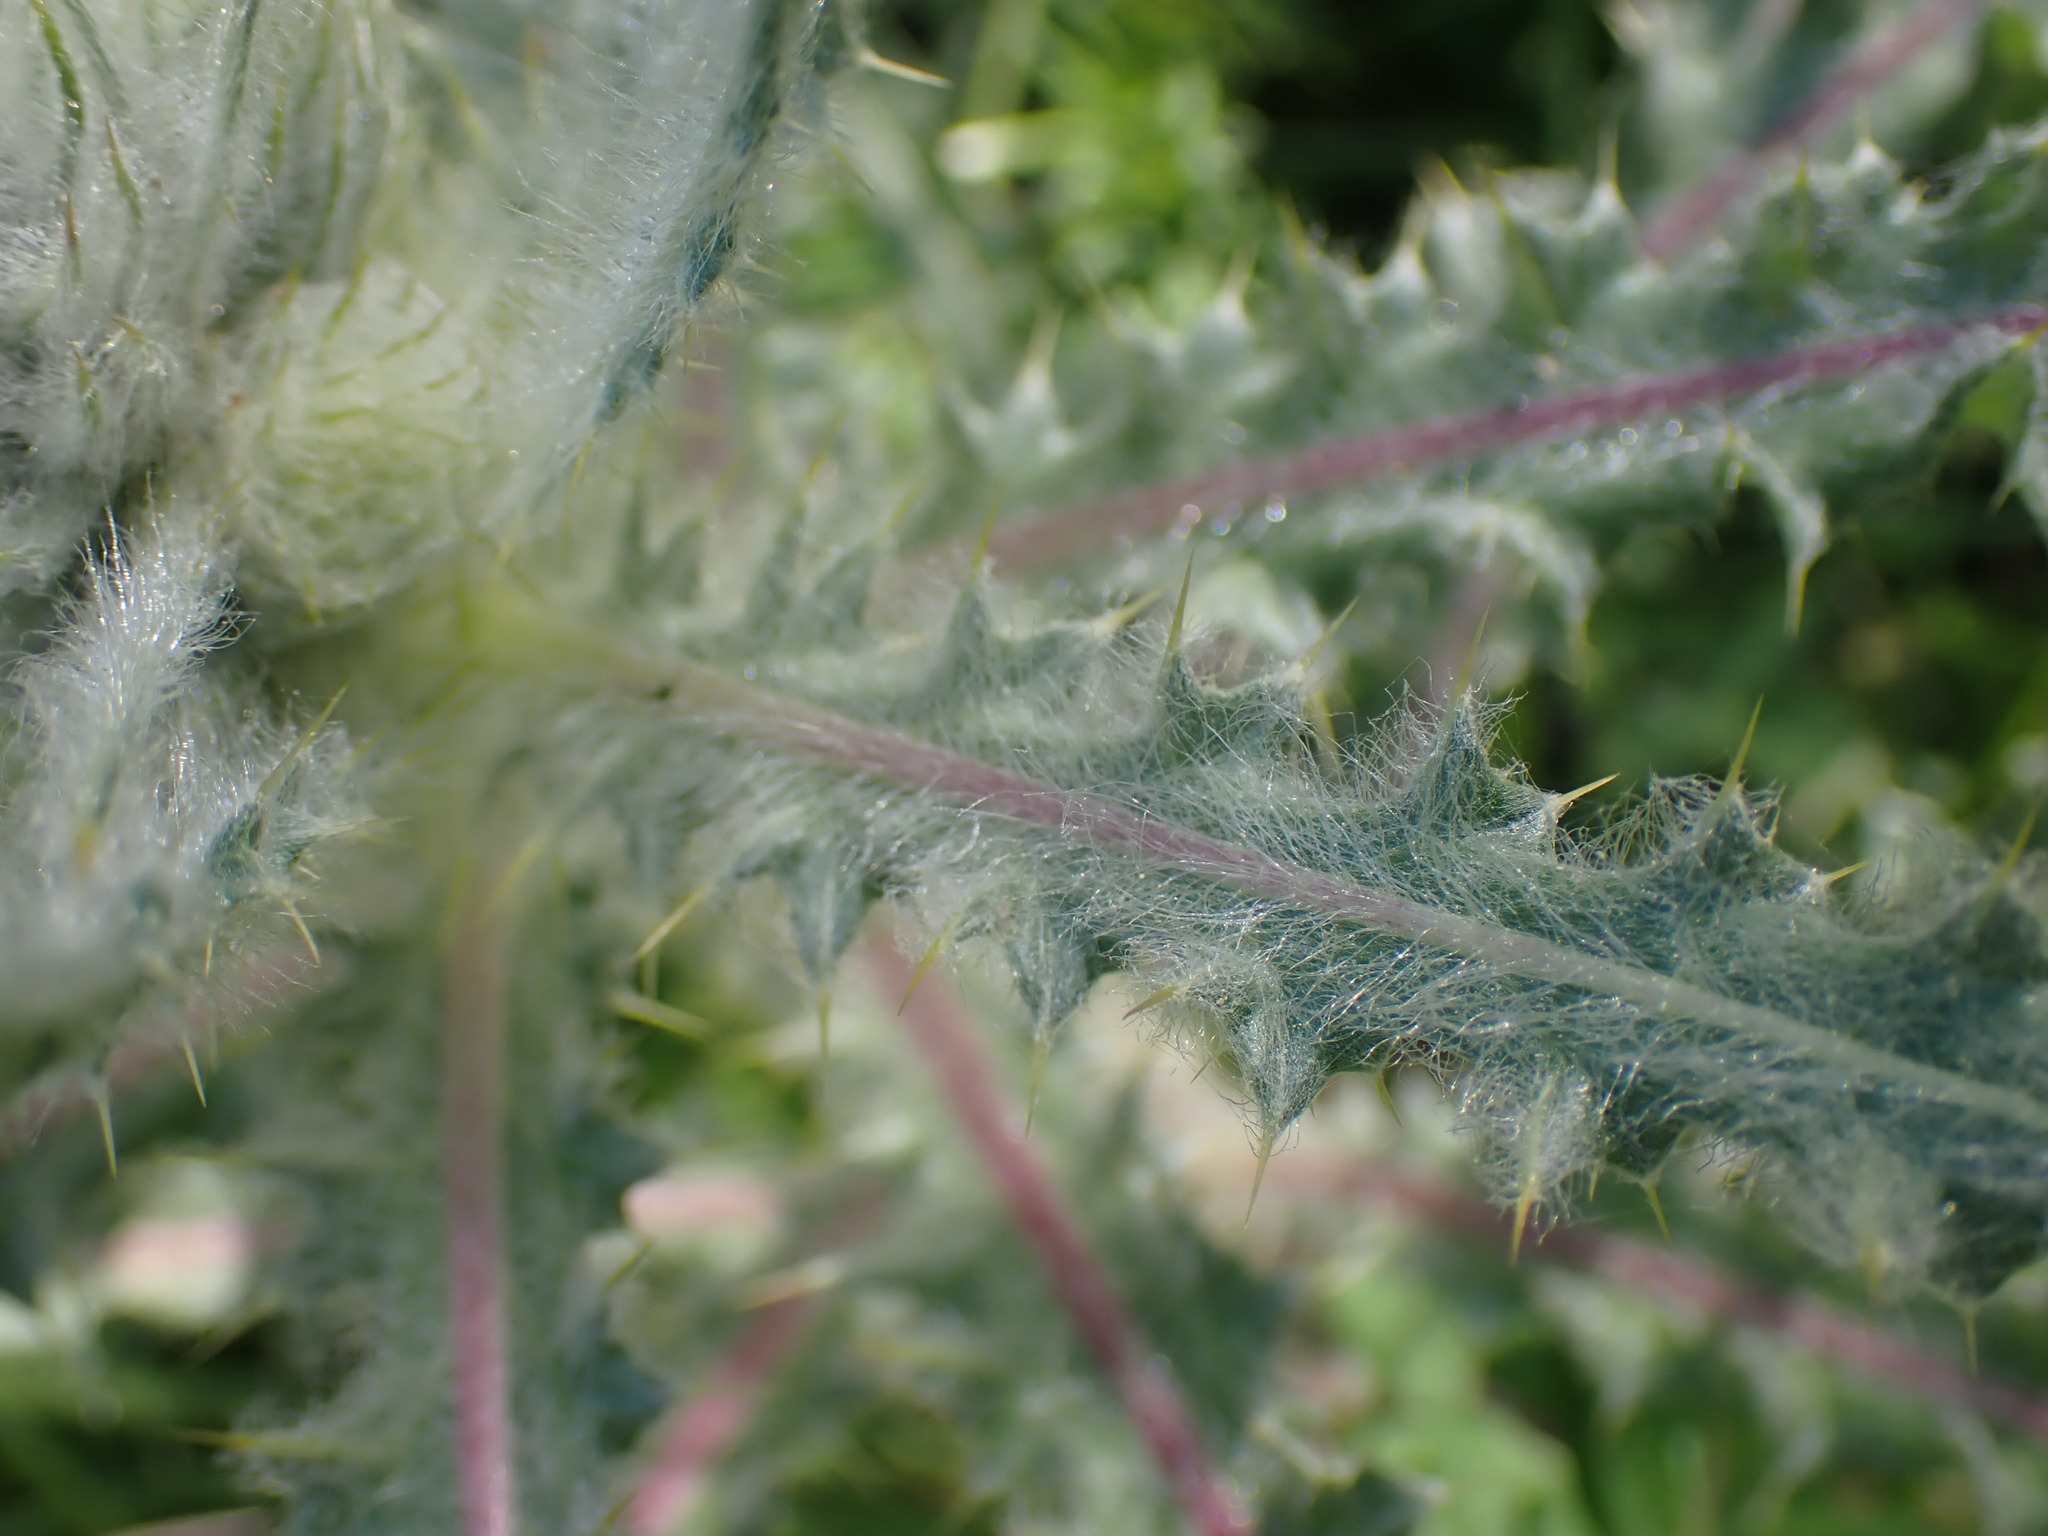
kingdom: Plantae
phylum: Tracheophyta
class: Magnoliopsida
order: Asterales
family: Asteraceae
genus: Cirsium
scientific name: Cirsium hookerianum
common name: Hooker's thistle
